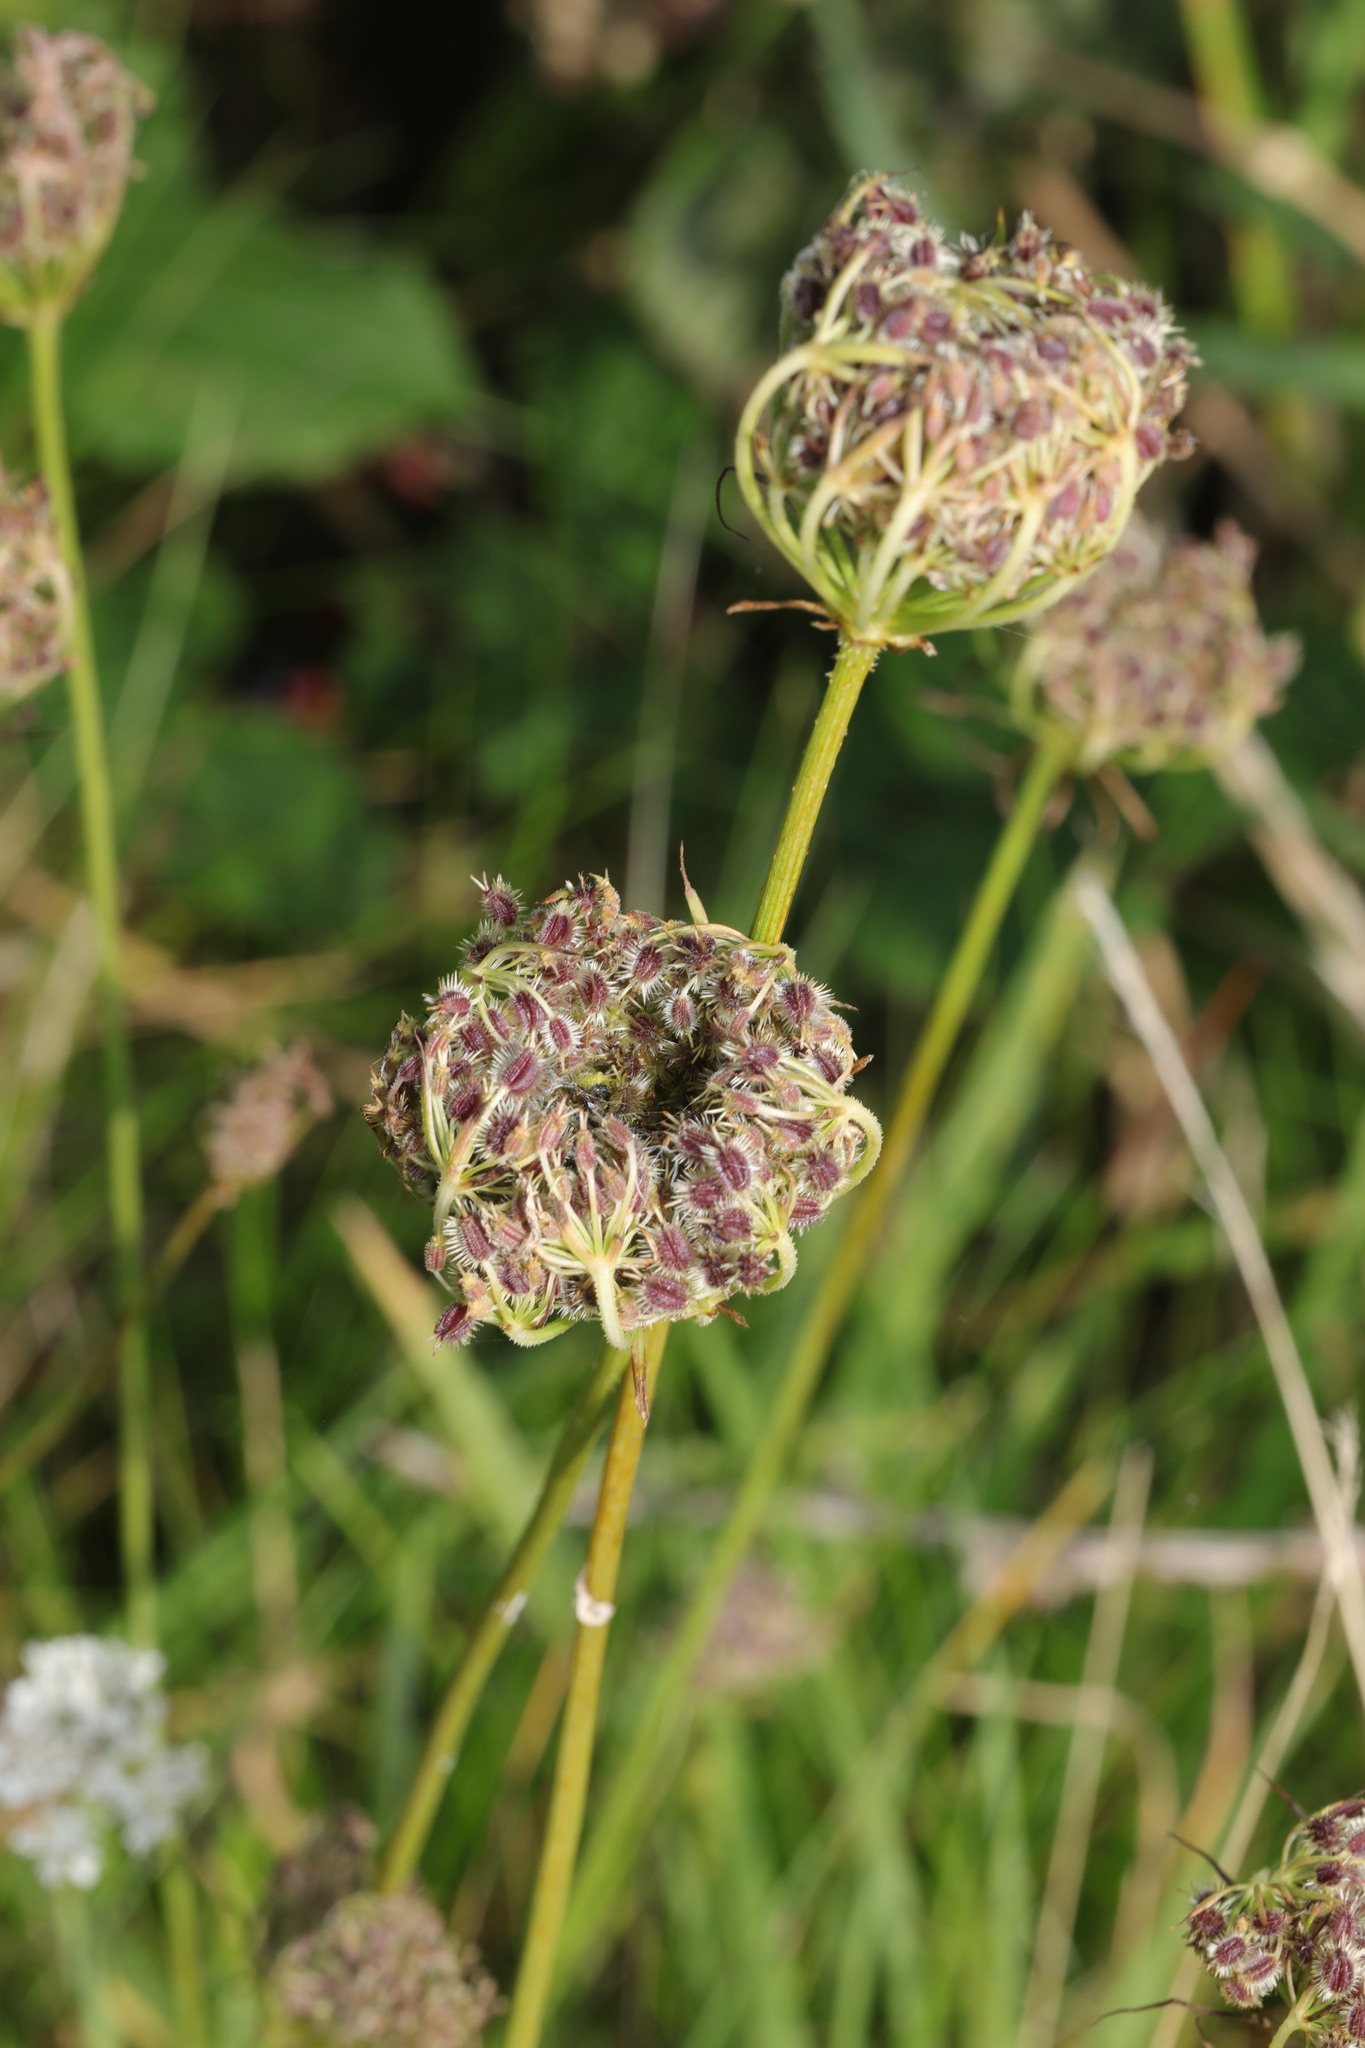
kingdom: Plantae
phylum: Tracheophyta
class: Magnoliopsida
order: Apiales
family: Apiaceae
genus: Daucus
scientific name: Daucus carota
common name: Wild carrot
